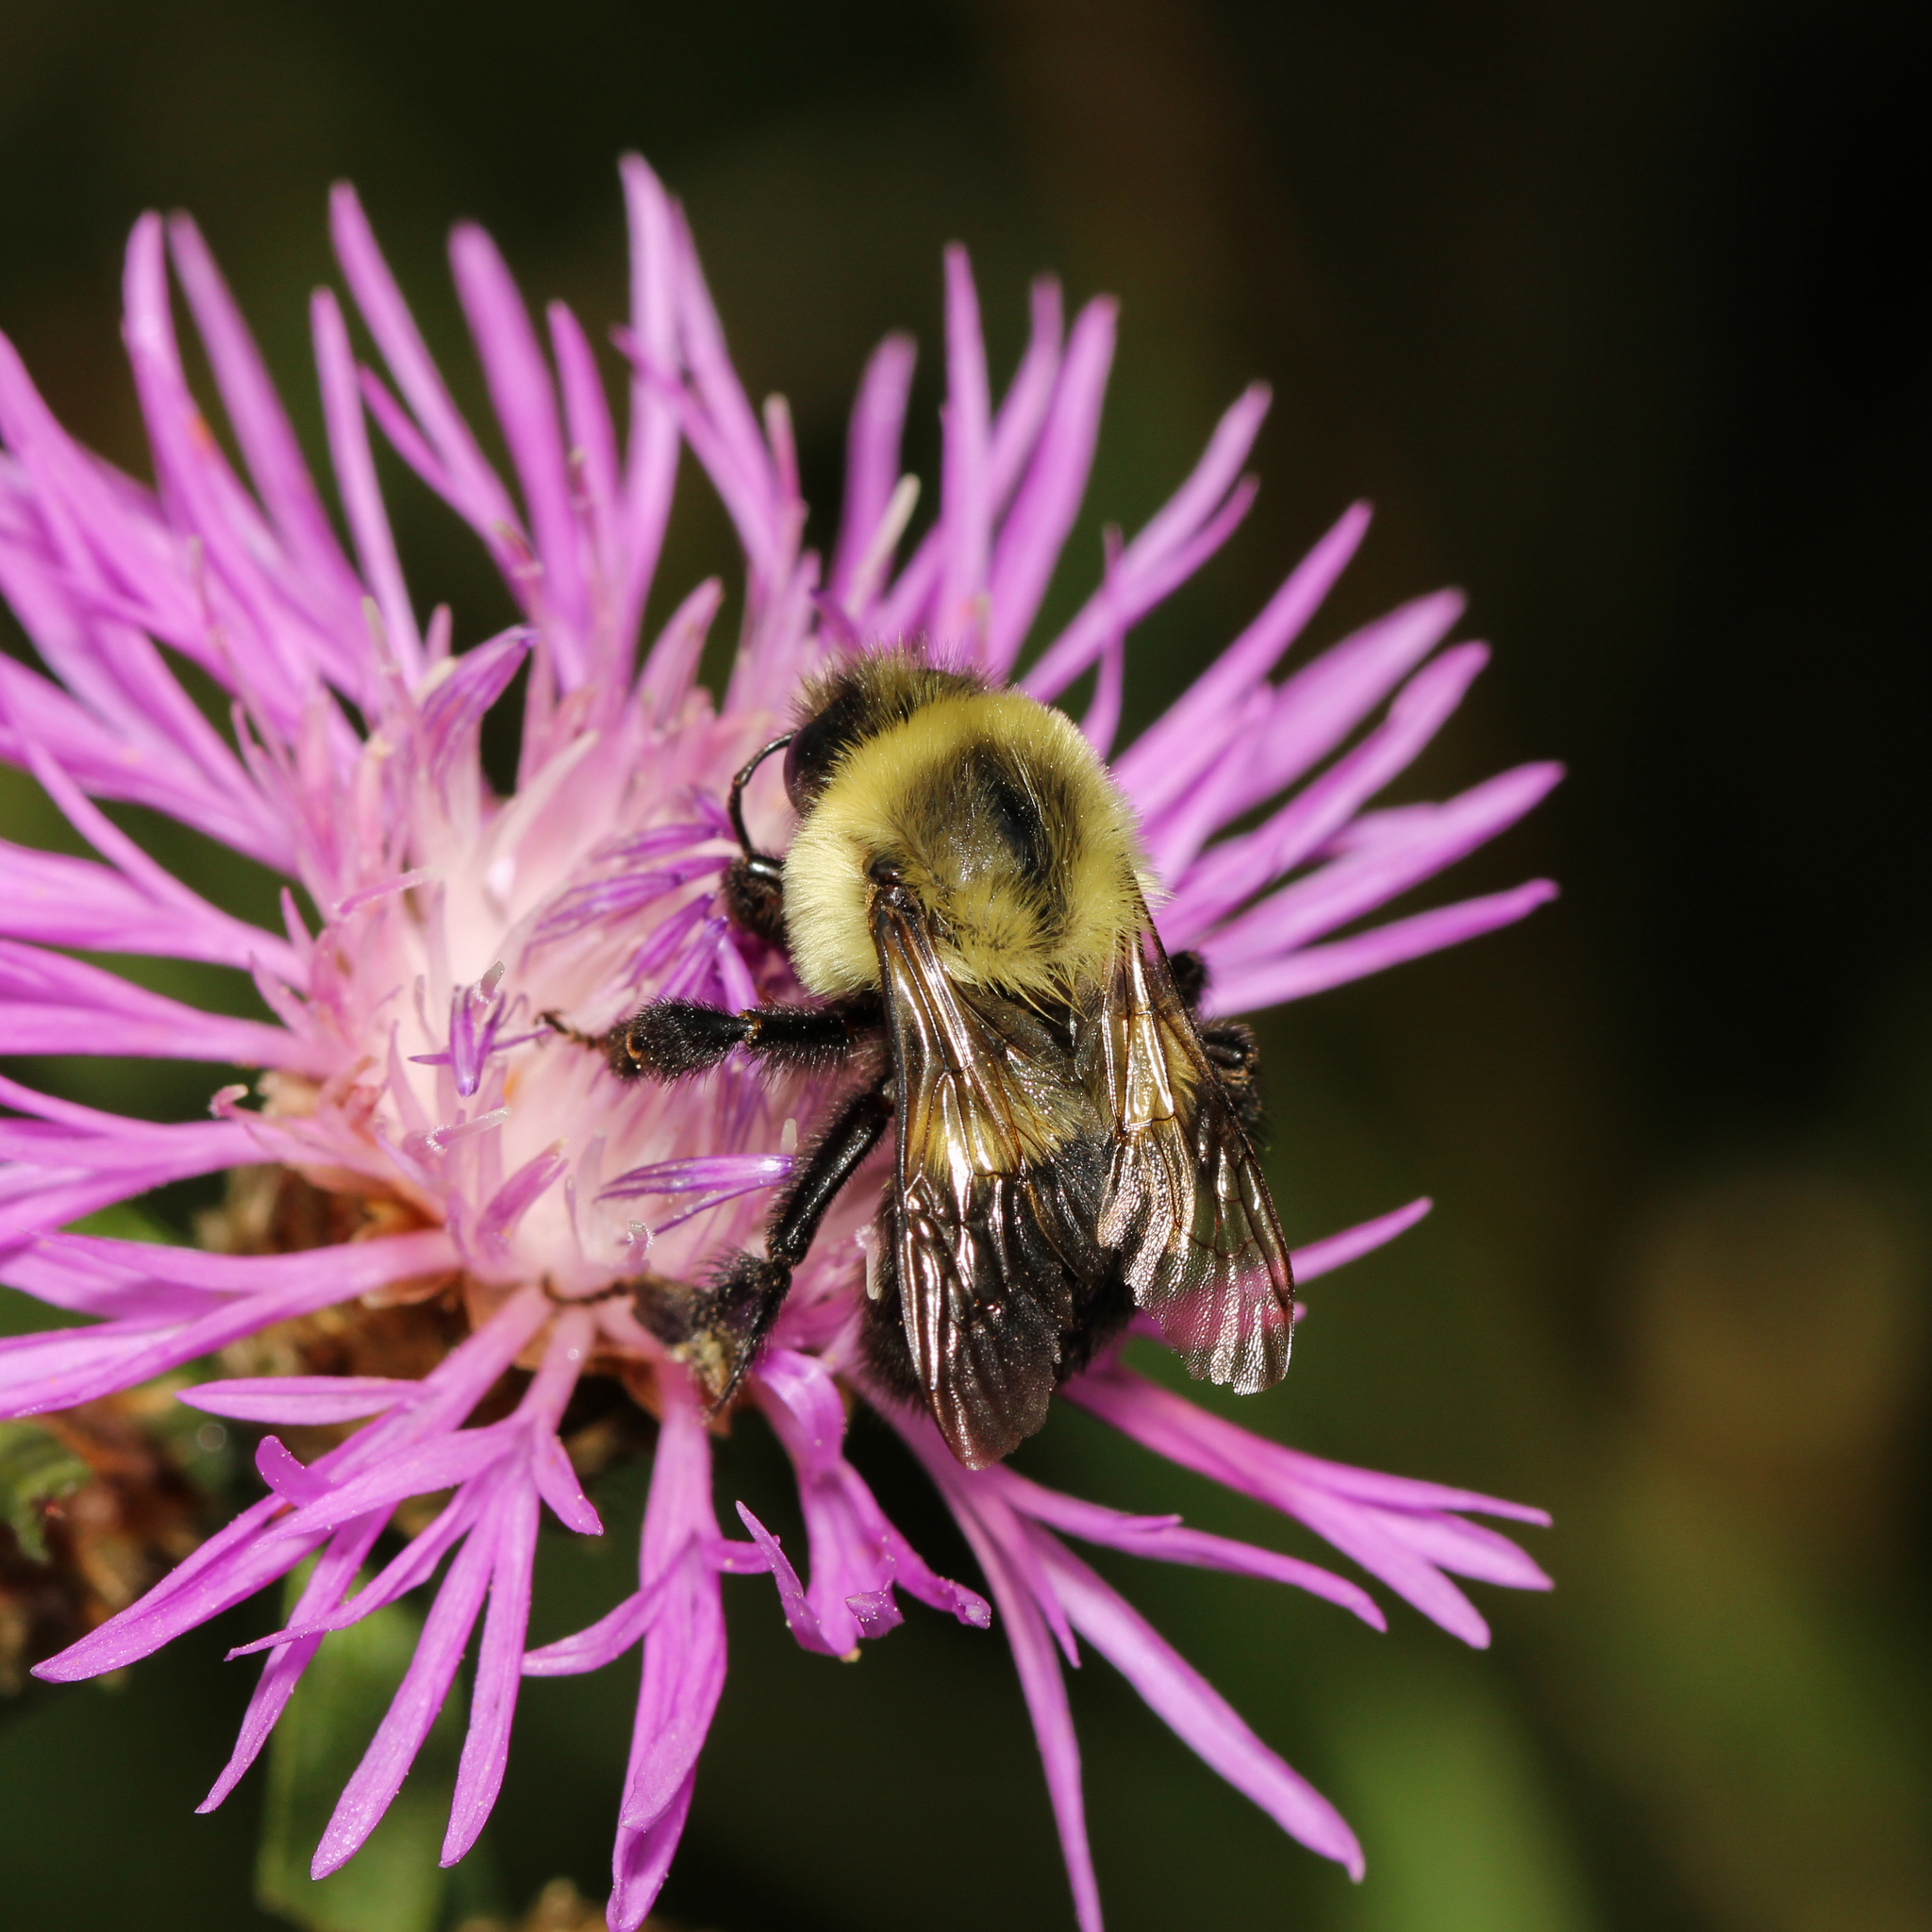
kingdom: Animalia
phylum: Arthropoda
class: Insecta
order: Hymenoptera
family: Apidae
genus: Bombus
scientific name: Bombus impatiens
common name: Common eastern bumble bee
